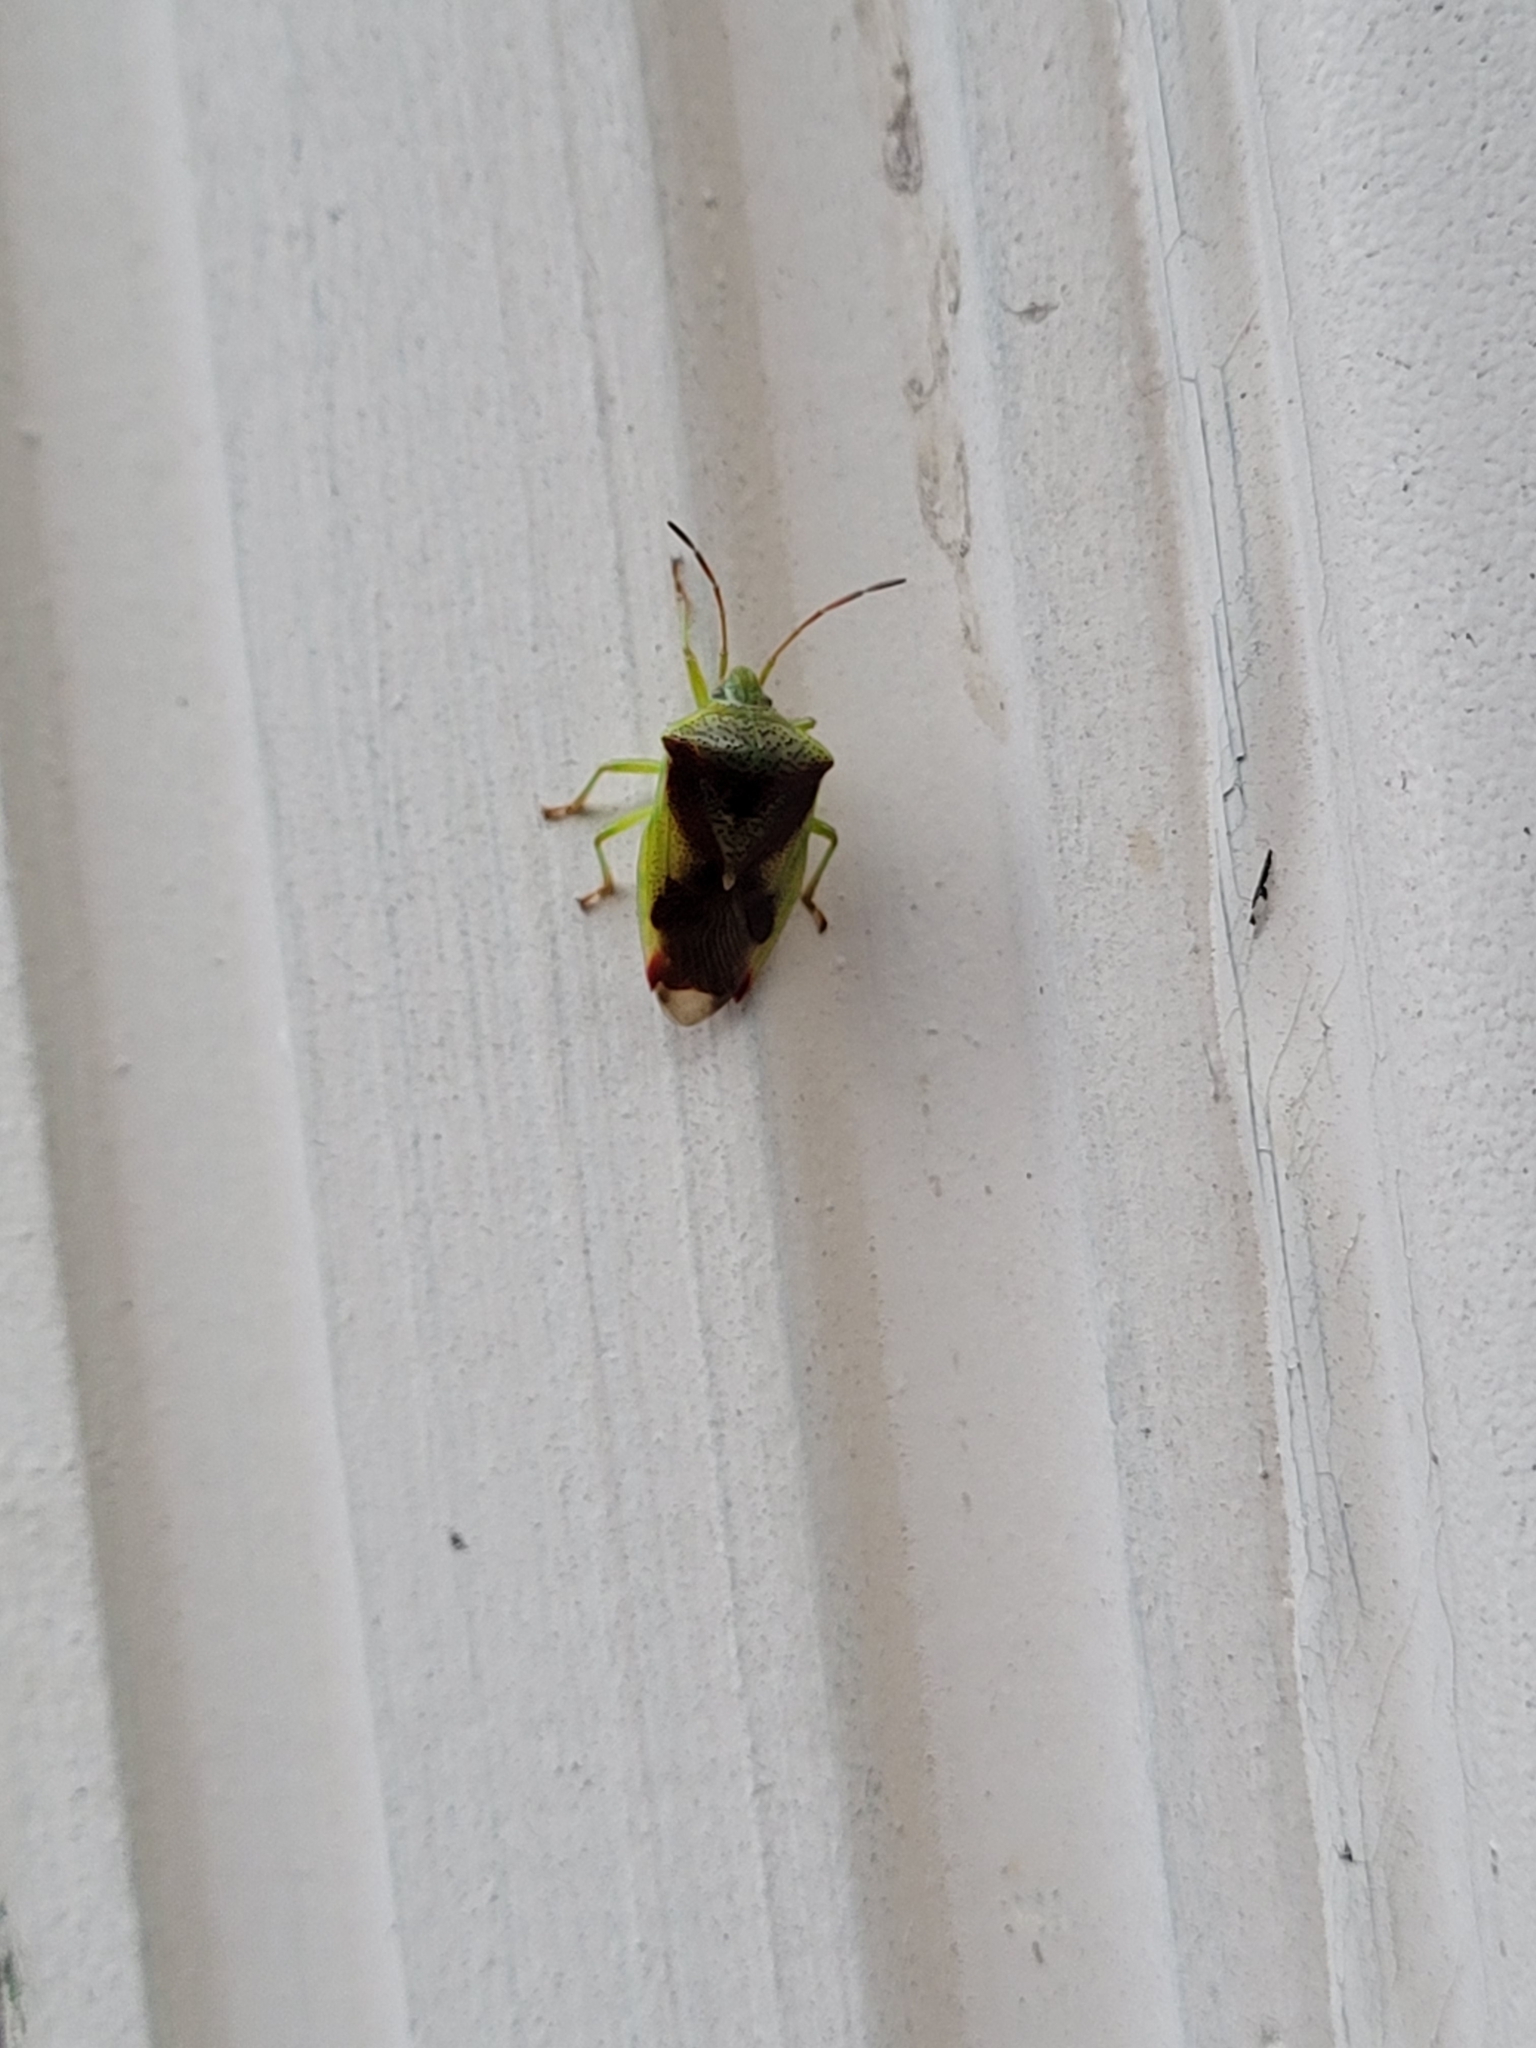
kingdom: Animalia
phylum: Arthropoda
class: Insecta
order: Hemiptera
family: Acanthosomatidae
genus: Elasmostethus
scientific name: Elasmostethus cruciatus
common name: Red-cross shield bug
